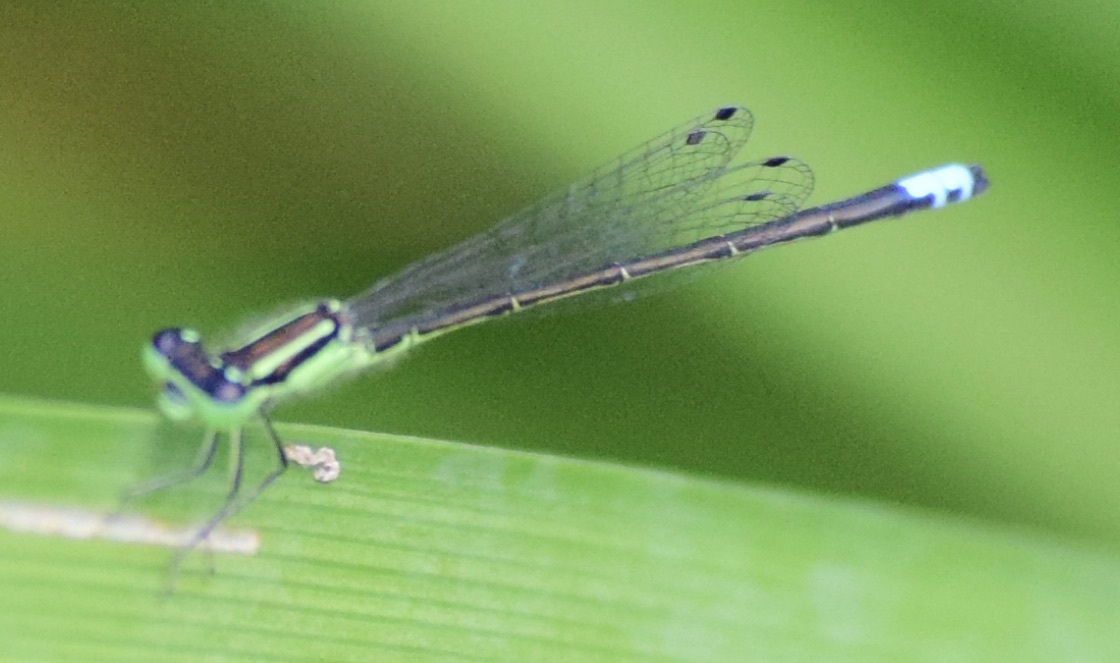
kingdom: Animalia
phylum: Arthropoda
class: Insecta
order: Odonata
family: Coenagrionidae
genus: Ischnura
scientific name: Ischnura verticalis
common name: Eastern forktail
